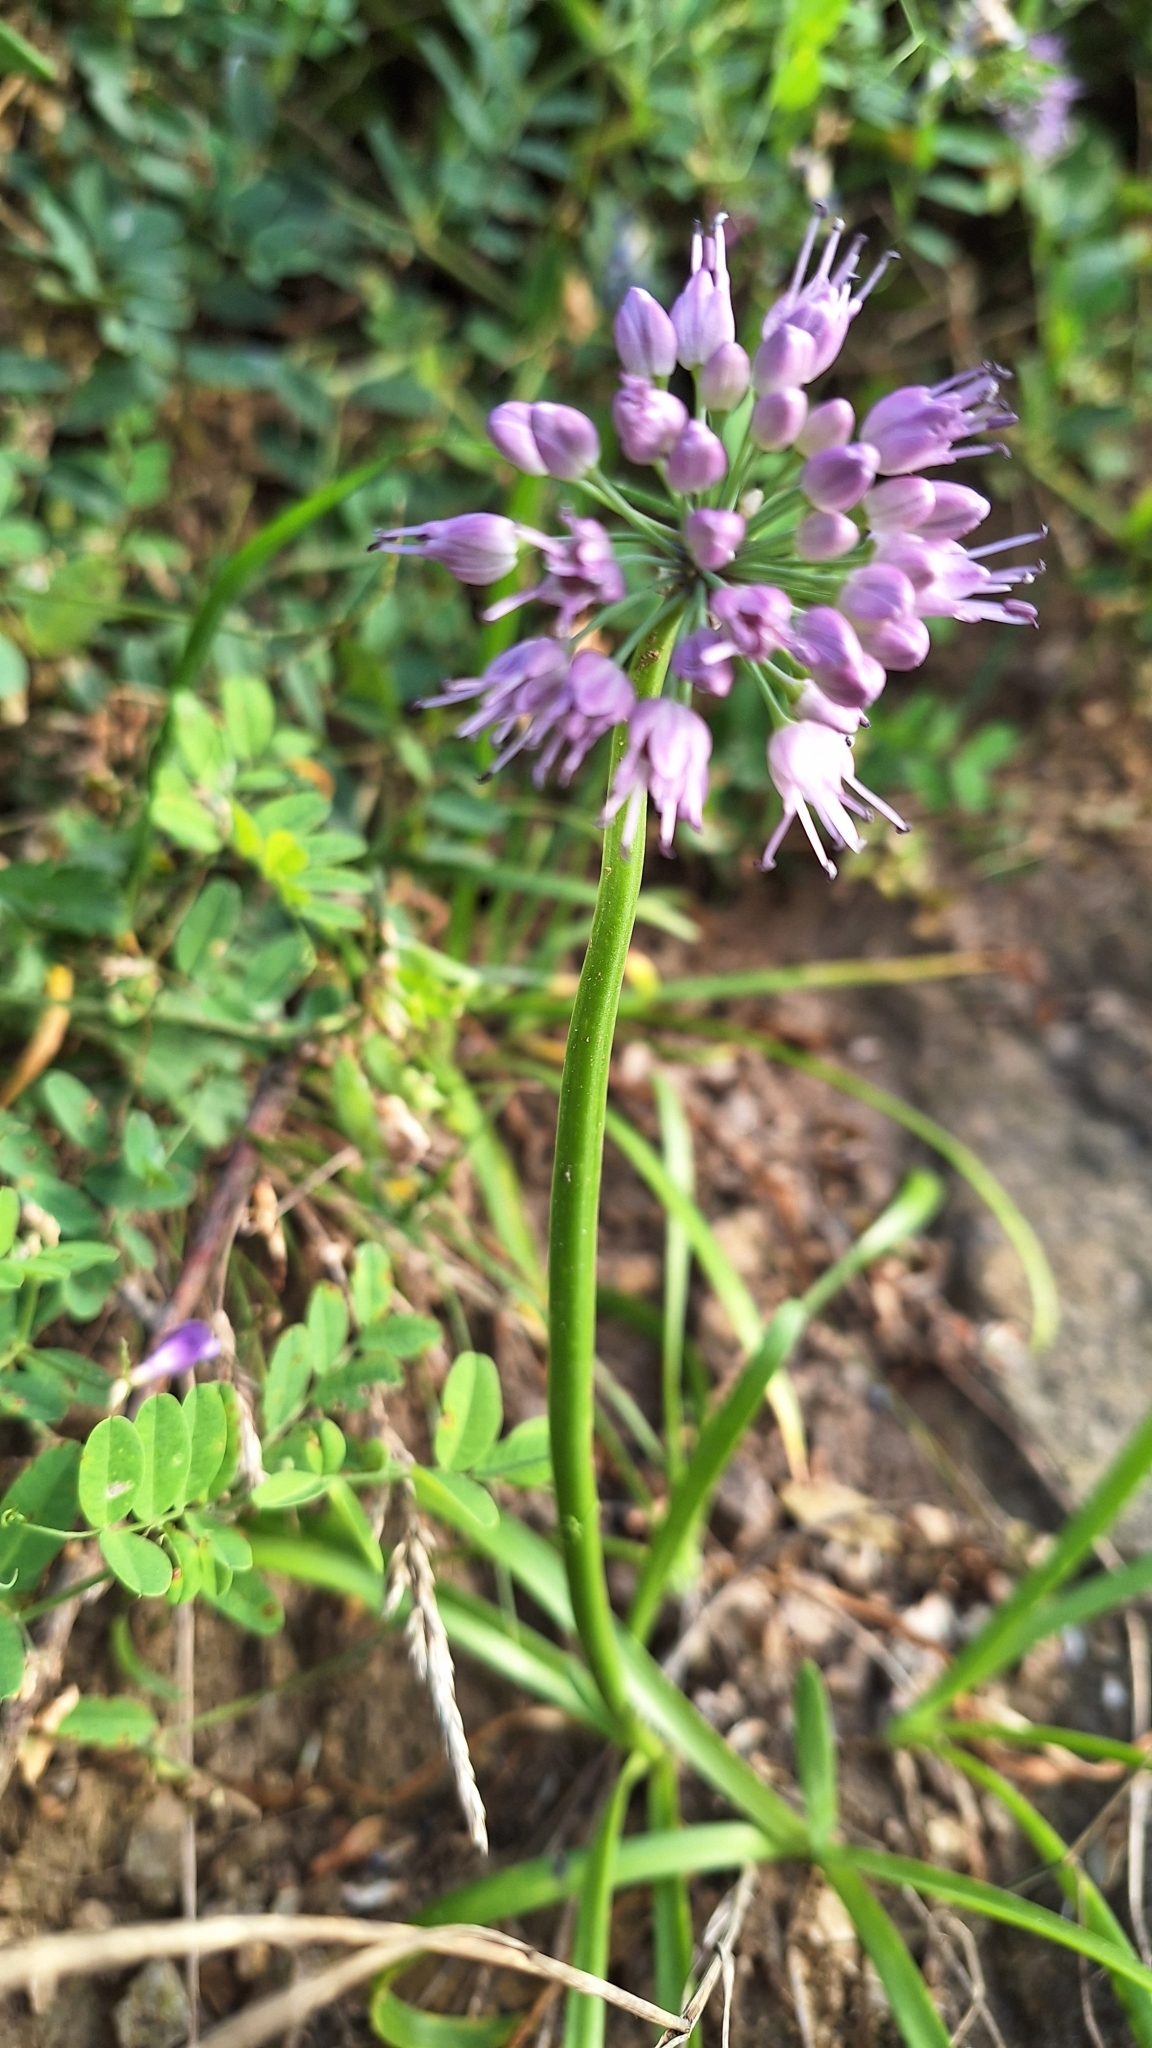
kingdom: Plantae
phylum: Tracheophyta
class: Liliopsida
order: Asparagales
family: Amaryllidaceae
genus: Allium
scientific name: Allium spirale
